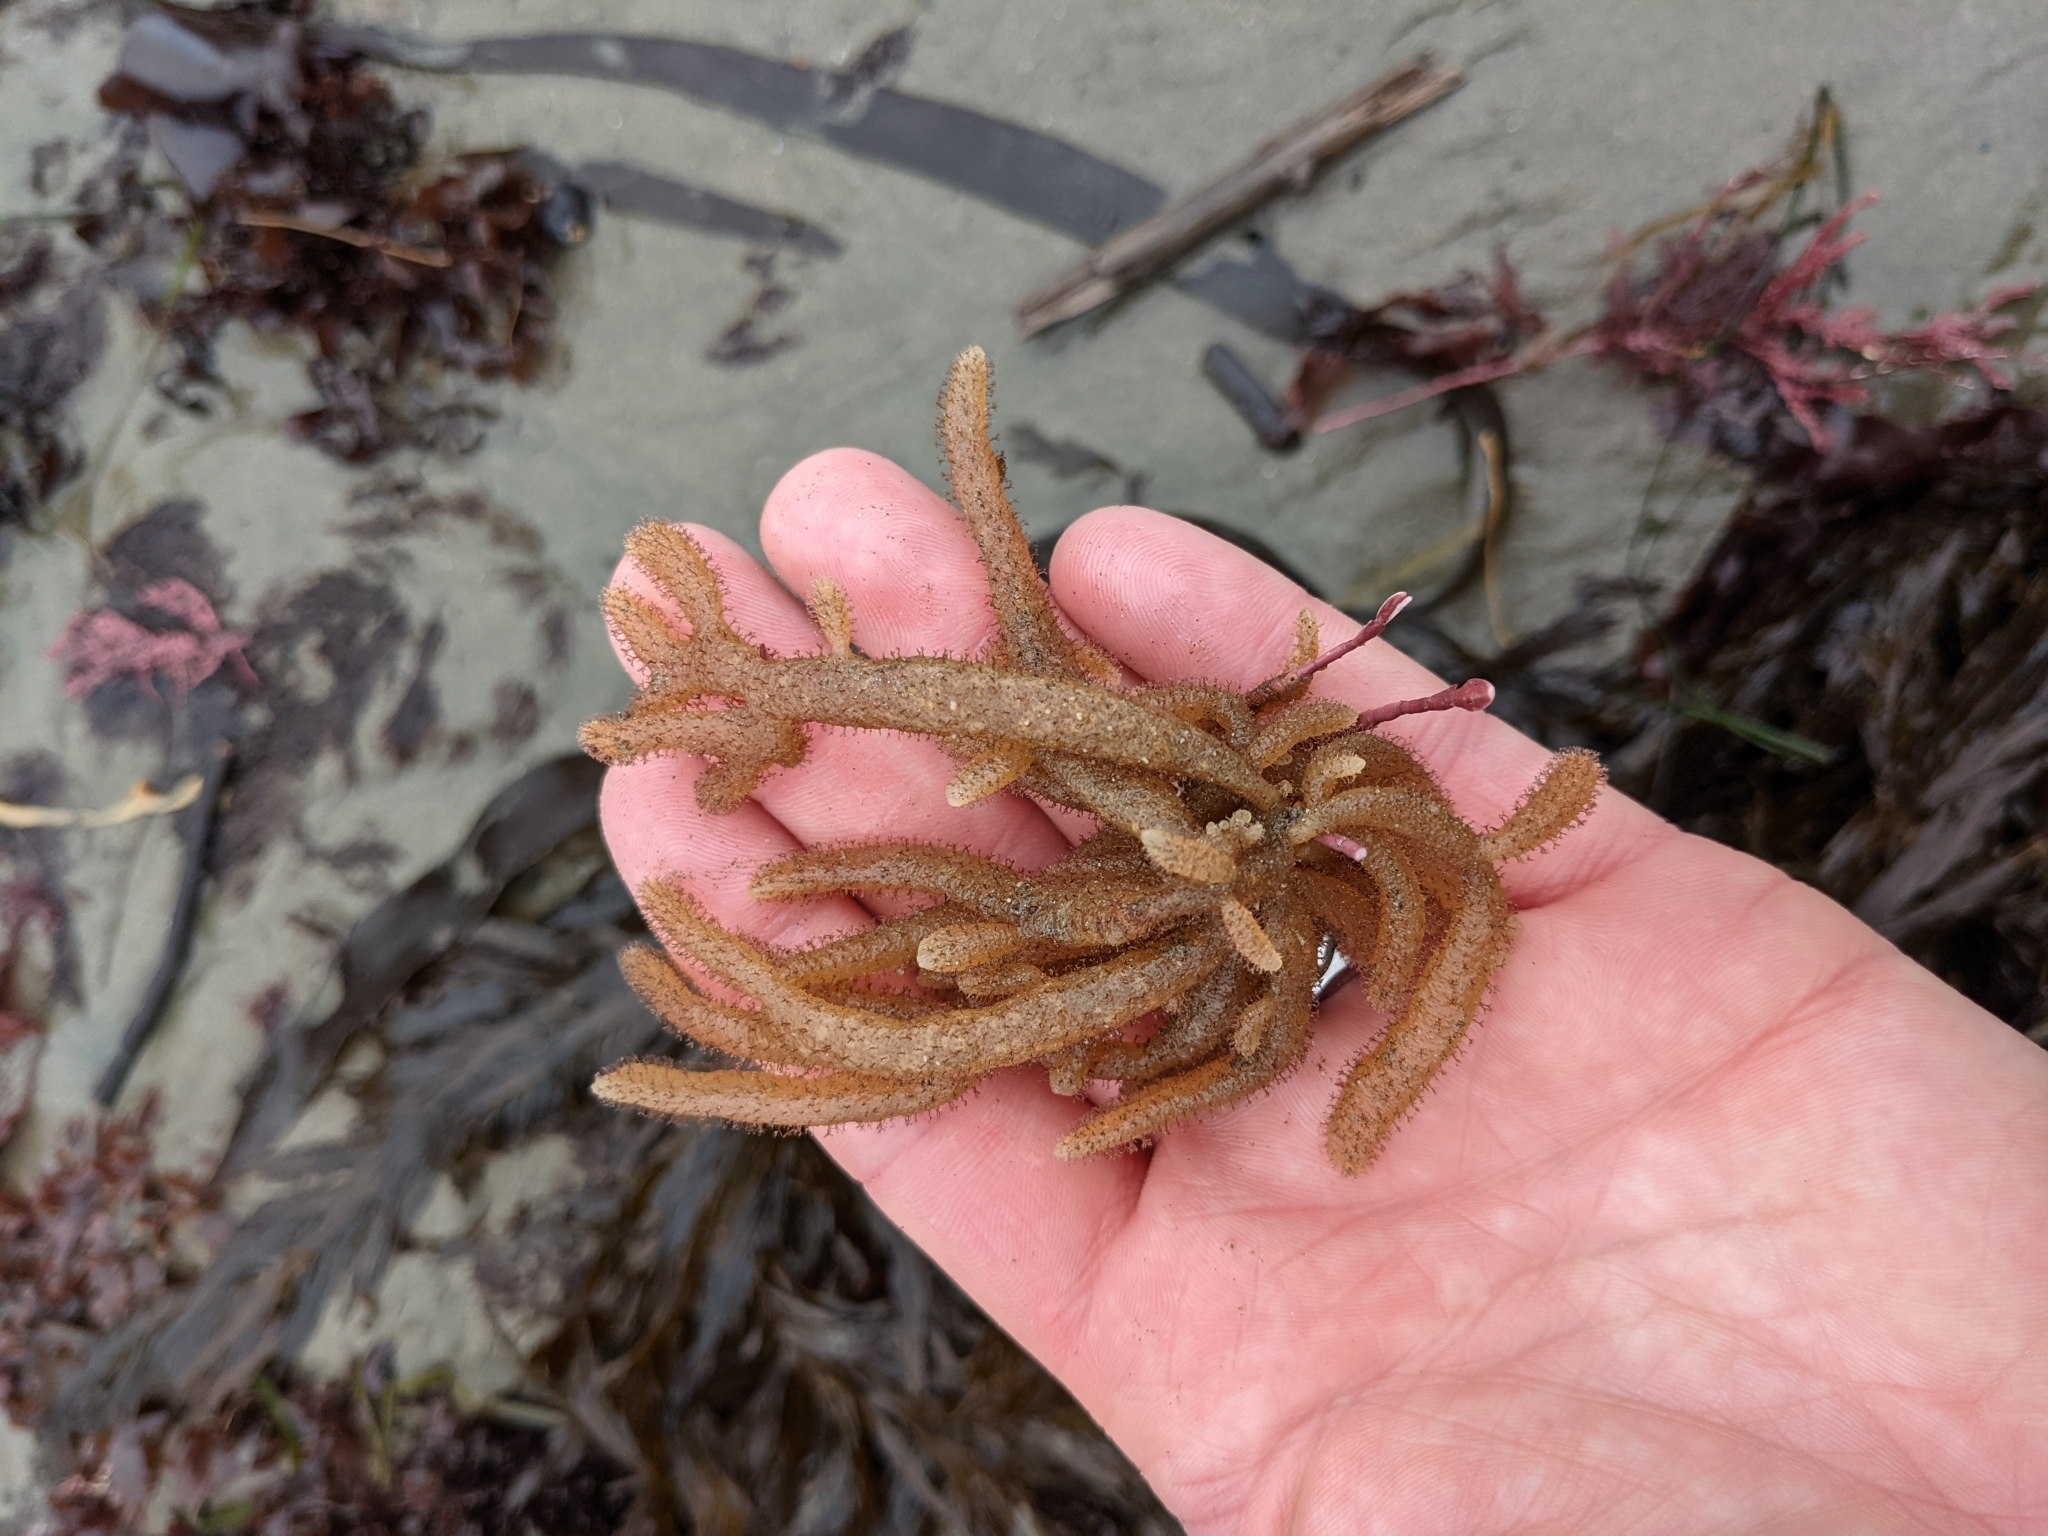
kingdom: Animalia
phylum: Bryozoa
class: Gymnolaemata
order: Ctenostomatida
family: Flustrellidridae
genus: Flustrellidra
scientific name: Flustrellidra corniculata
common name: Spiny leather bryozoan
